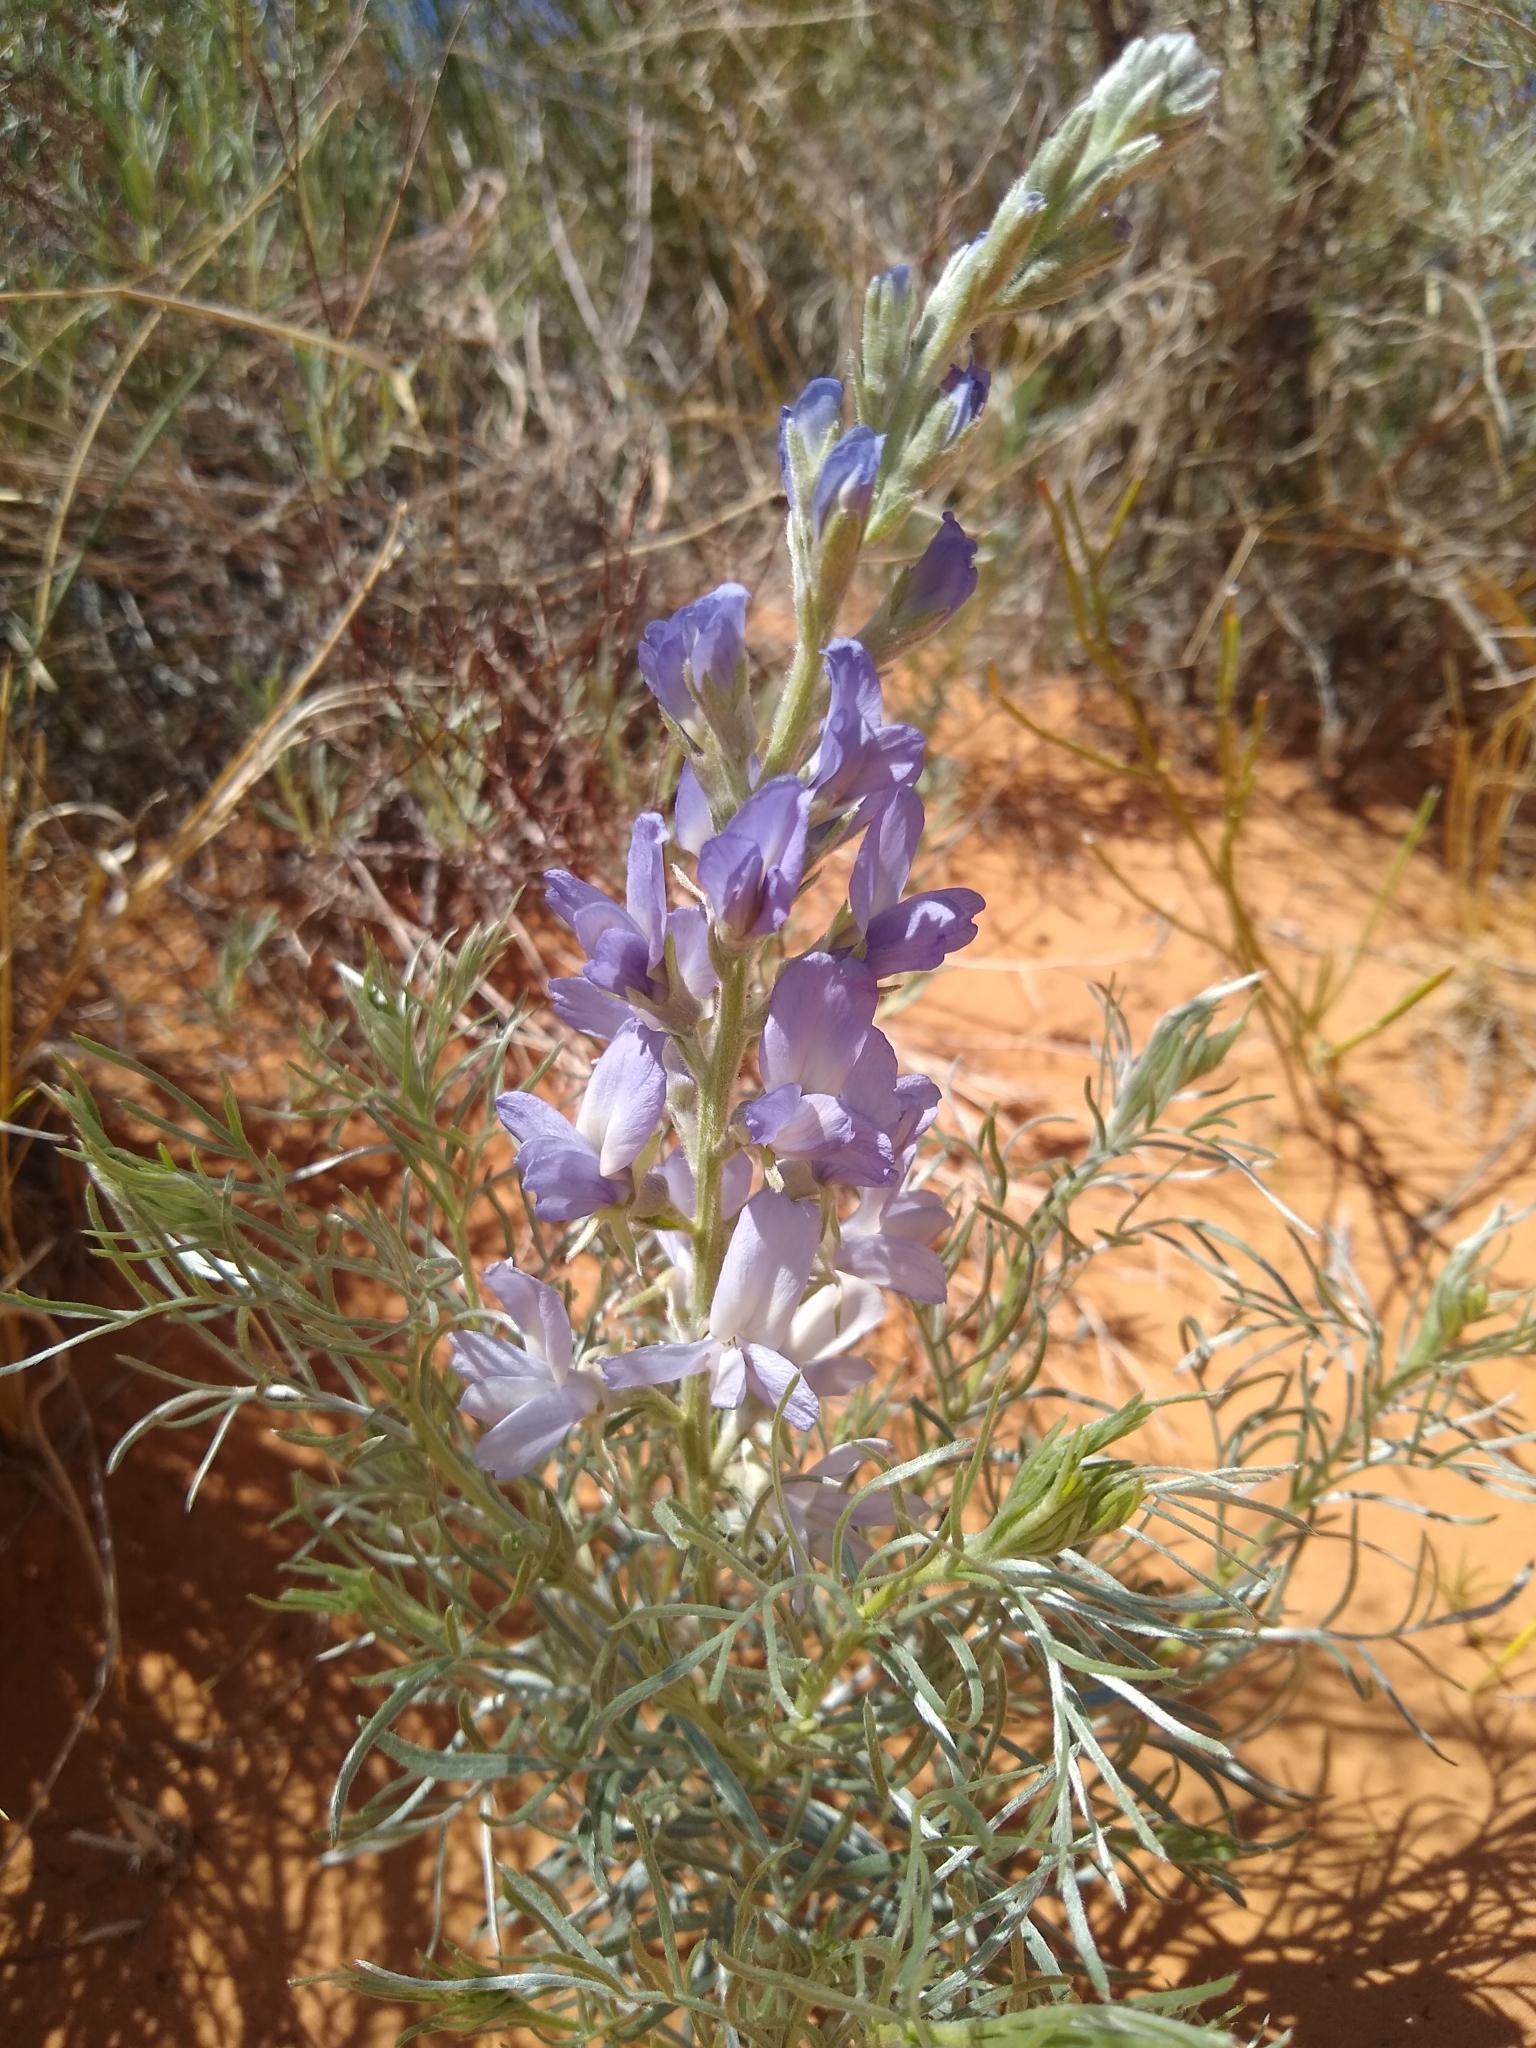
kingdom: Plantae
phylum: Tracheophyta
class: Magnoliopsida
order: Fabales
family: Fabaceae
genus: Sophora
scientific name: Sophora stenophylla
